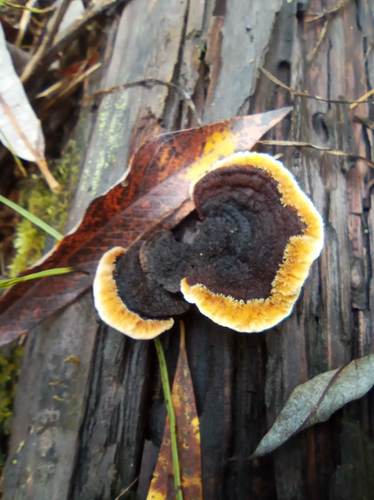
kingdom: Fungi
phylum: Basidiomycota
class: Agaricomycetes
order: Gloeophyllales
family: Gloeophyllaceae
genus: Gloeophyllum
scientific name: Gloeophyllum sepiarium
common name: Conifer mazegill
